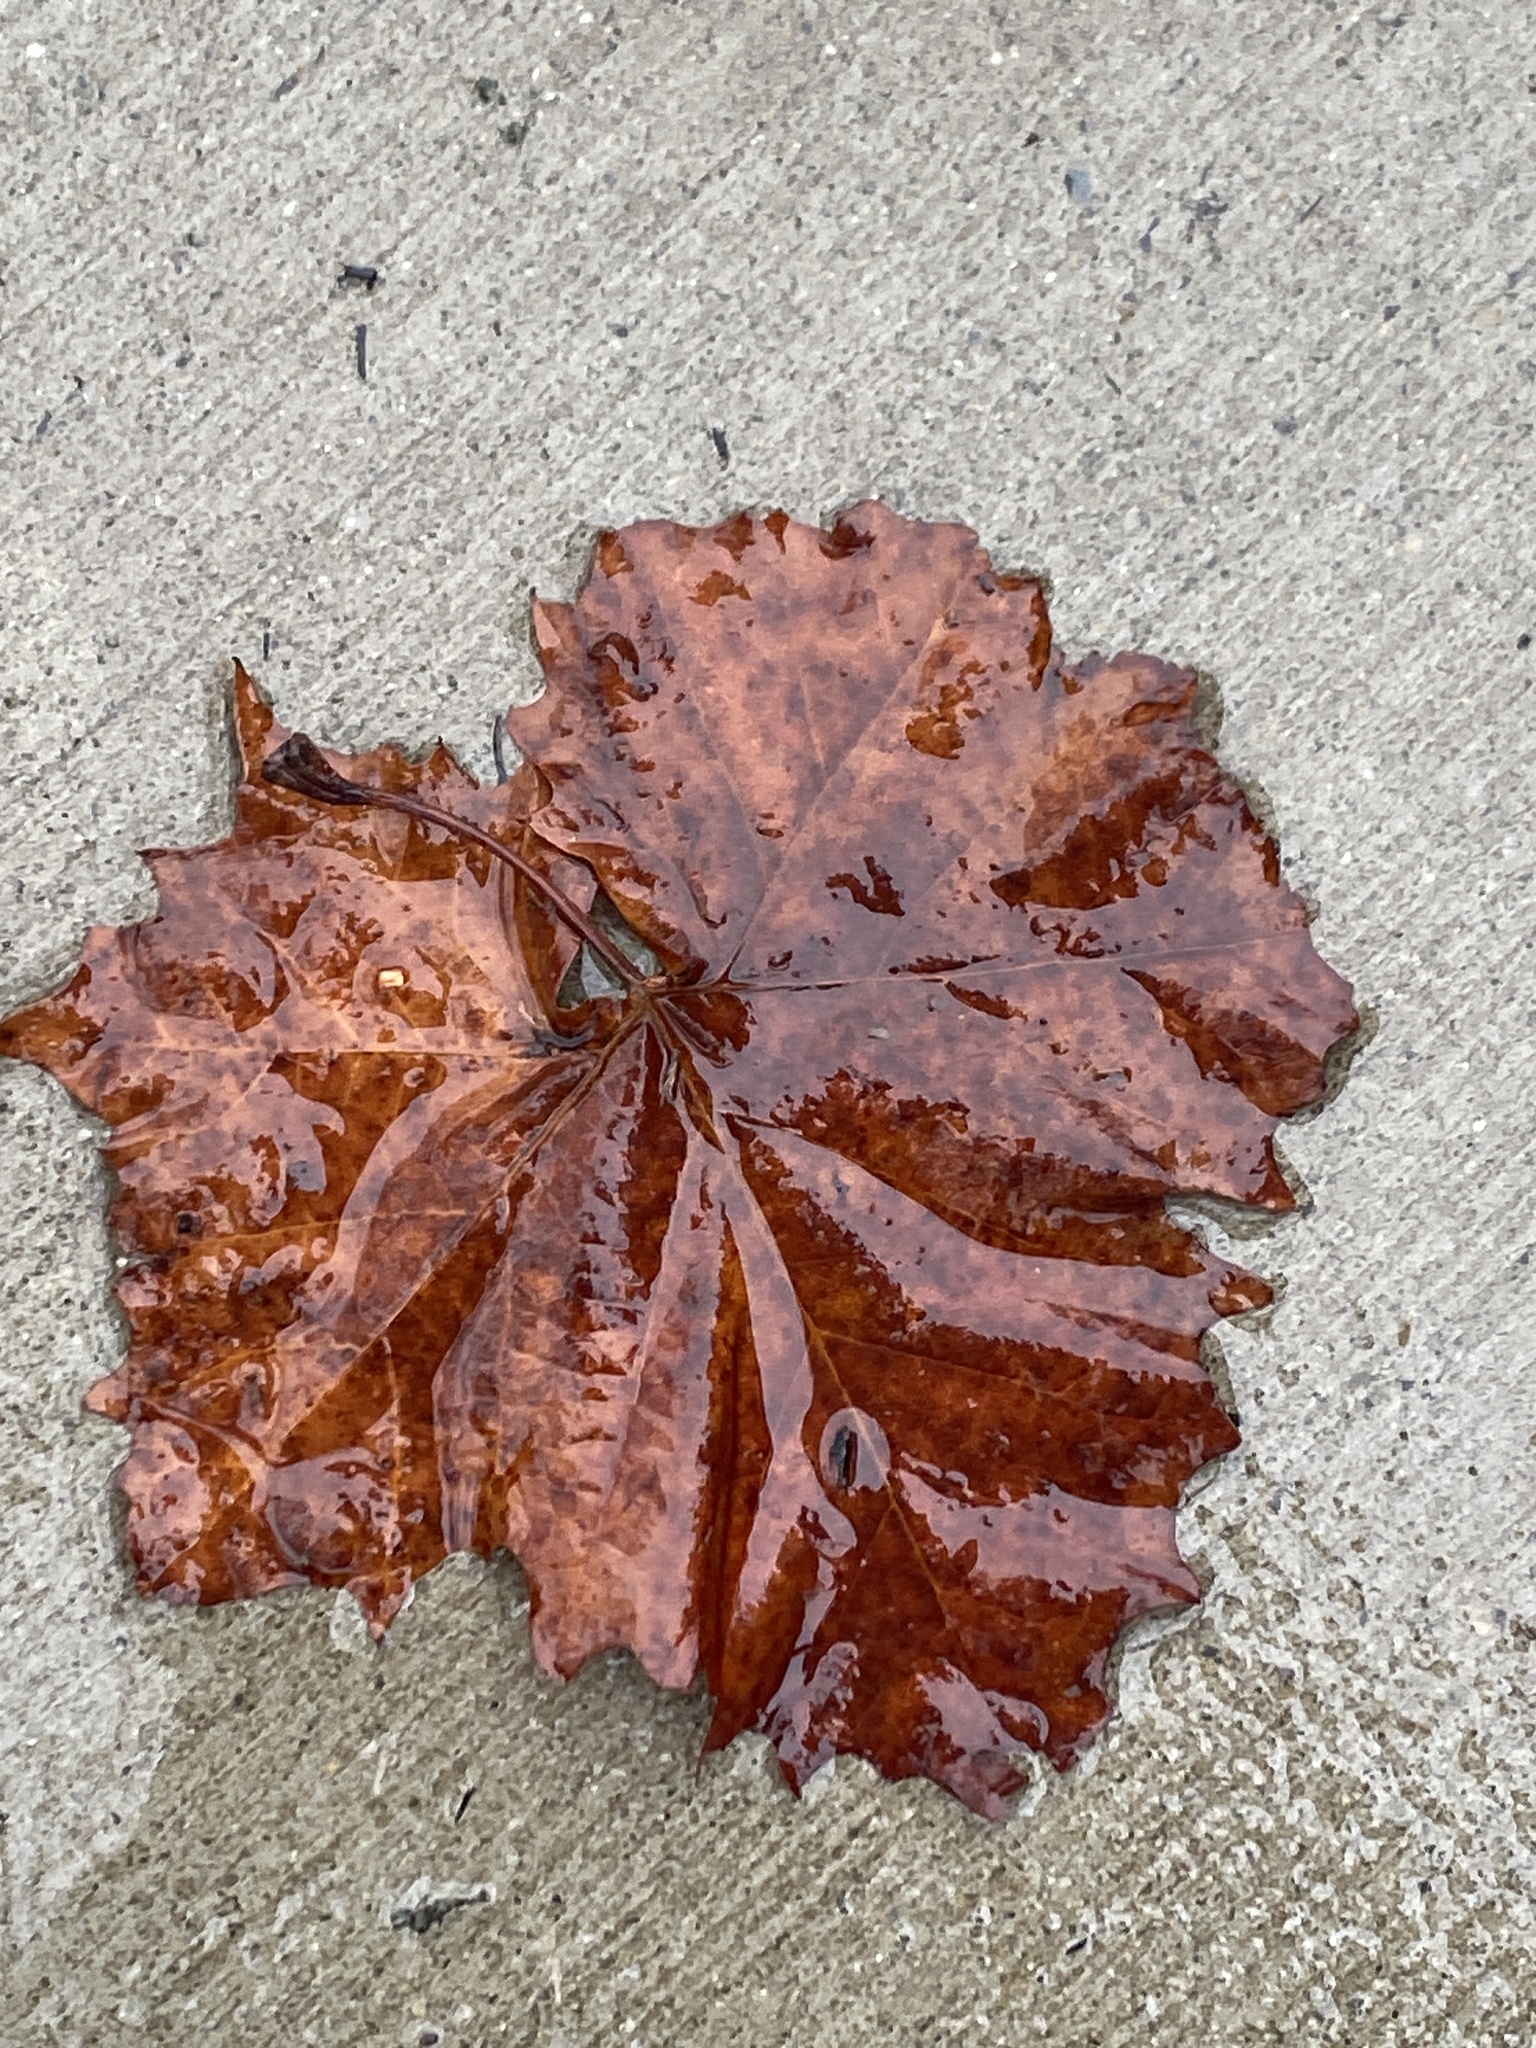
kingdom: Plantae
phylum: Tracheophyta
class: Magnoliopsida
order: Proteales
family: Platanaceae
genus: Platanus
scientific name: Platanus occidentalis
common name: American sycamore
